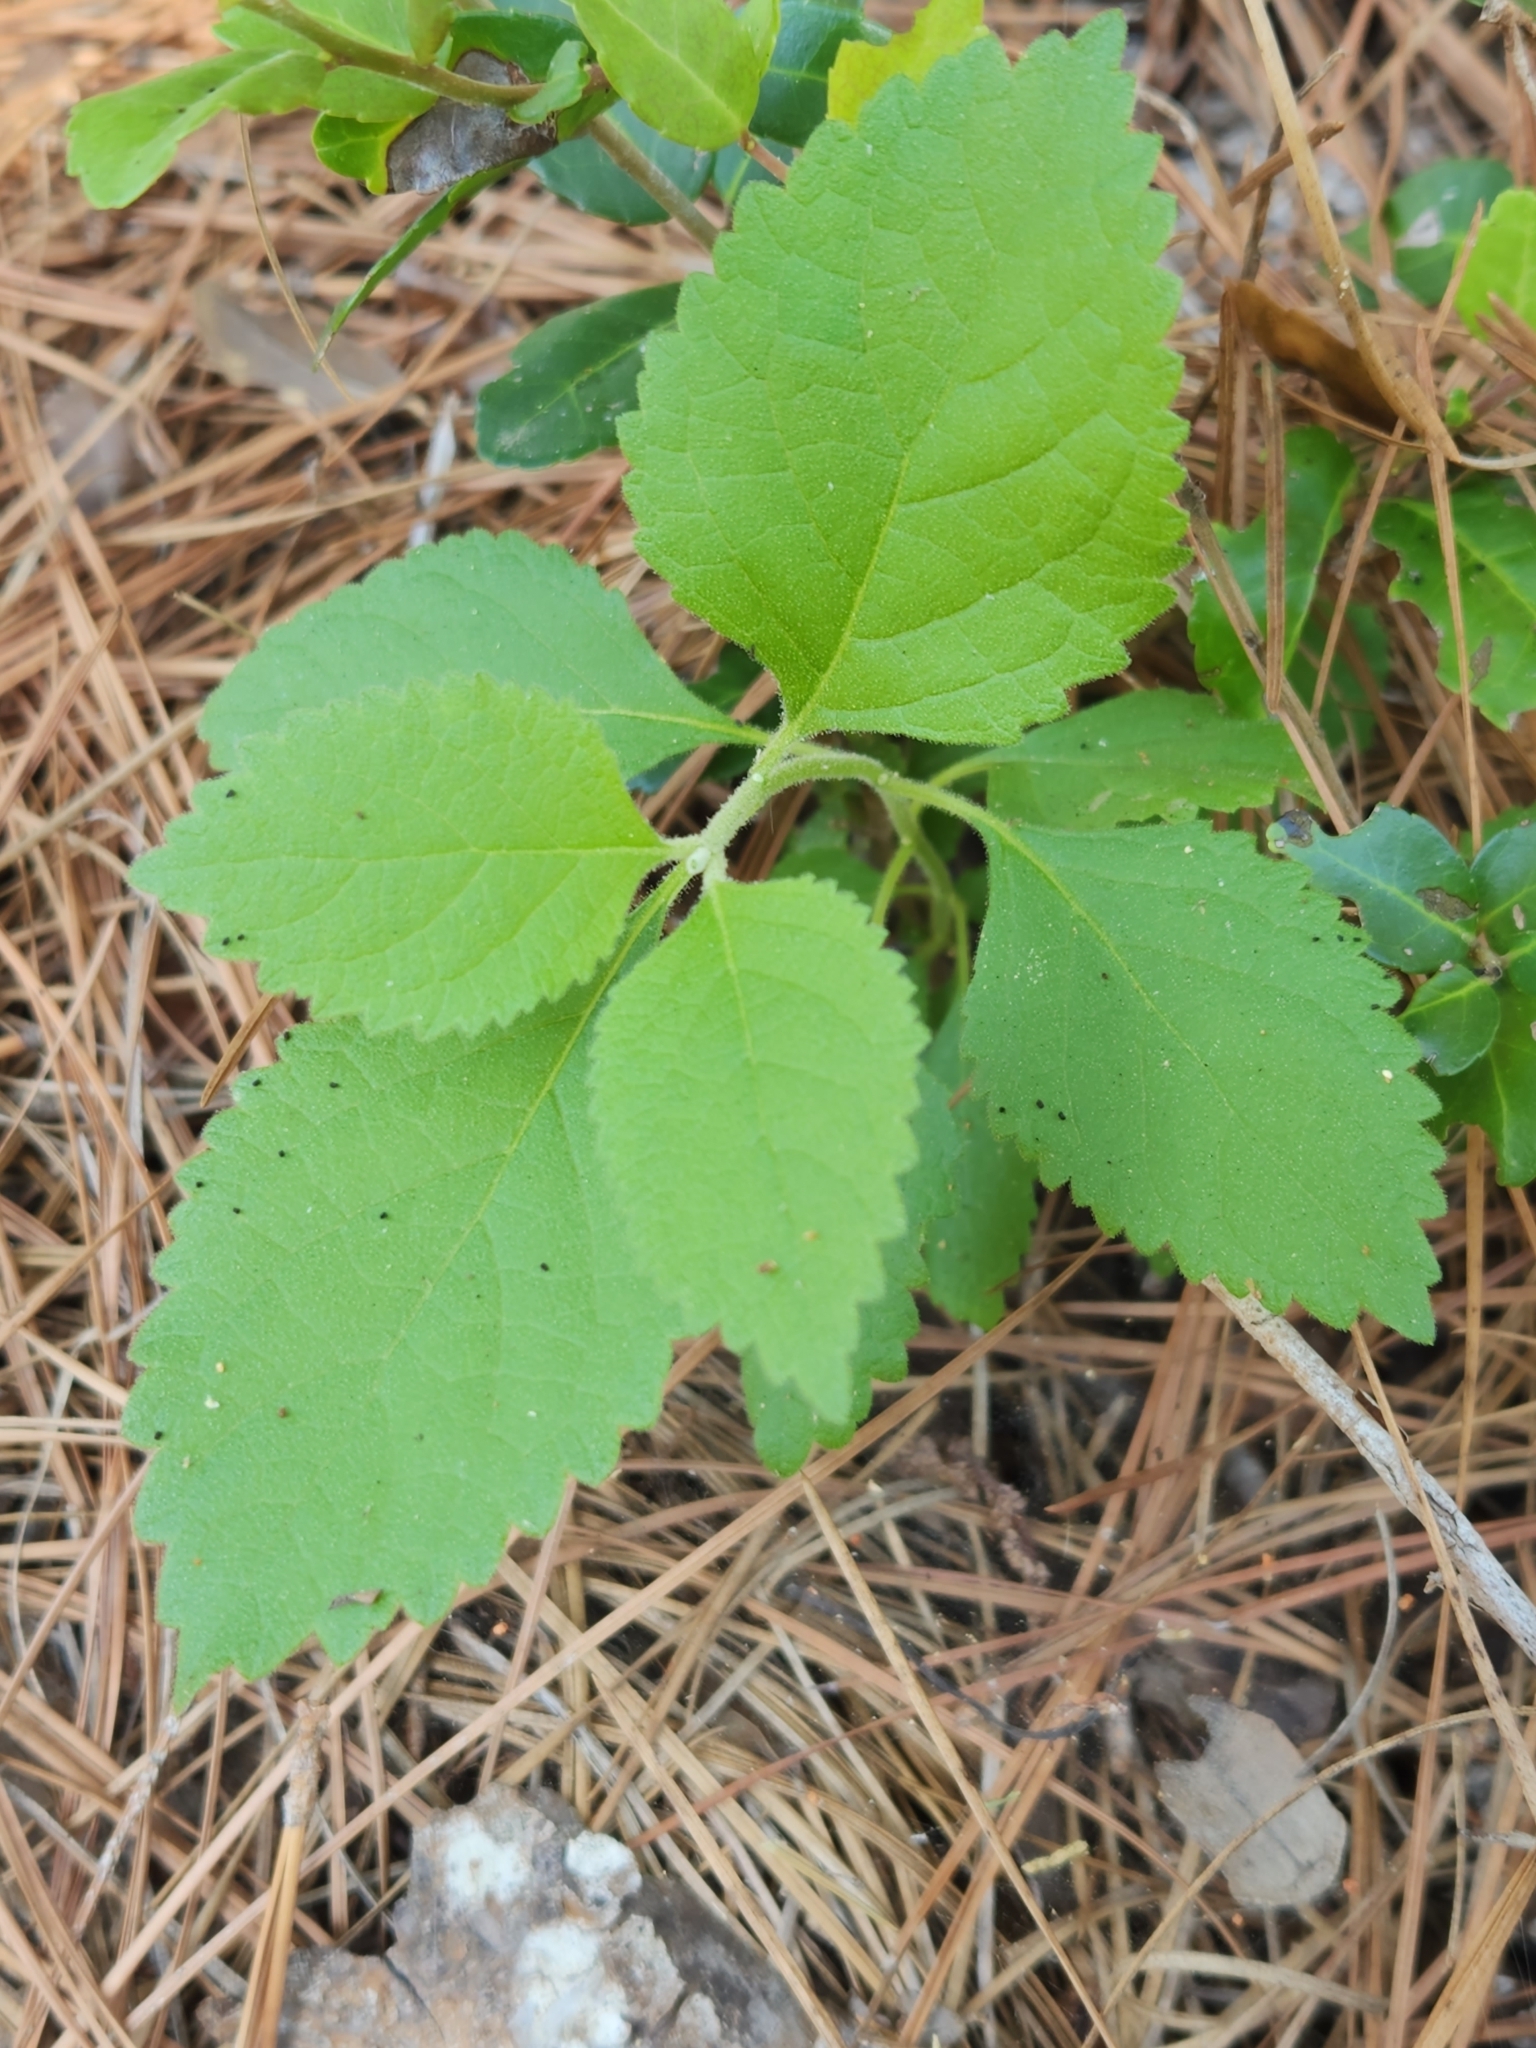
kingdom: Plantae
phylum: Tracheophyta
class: Magnoliopsida
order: Lamiales
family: Lamiaceae
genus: Callicarpa
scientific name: Callicarpa americana
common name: American beautyberry
